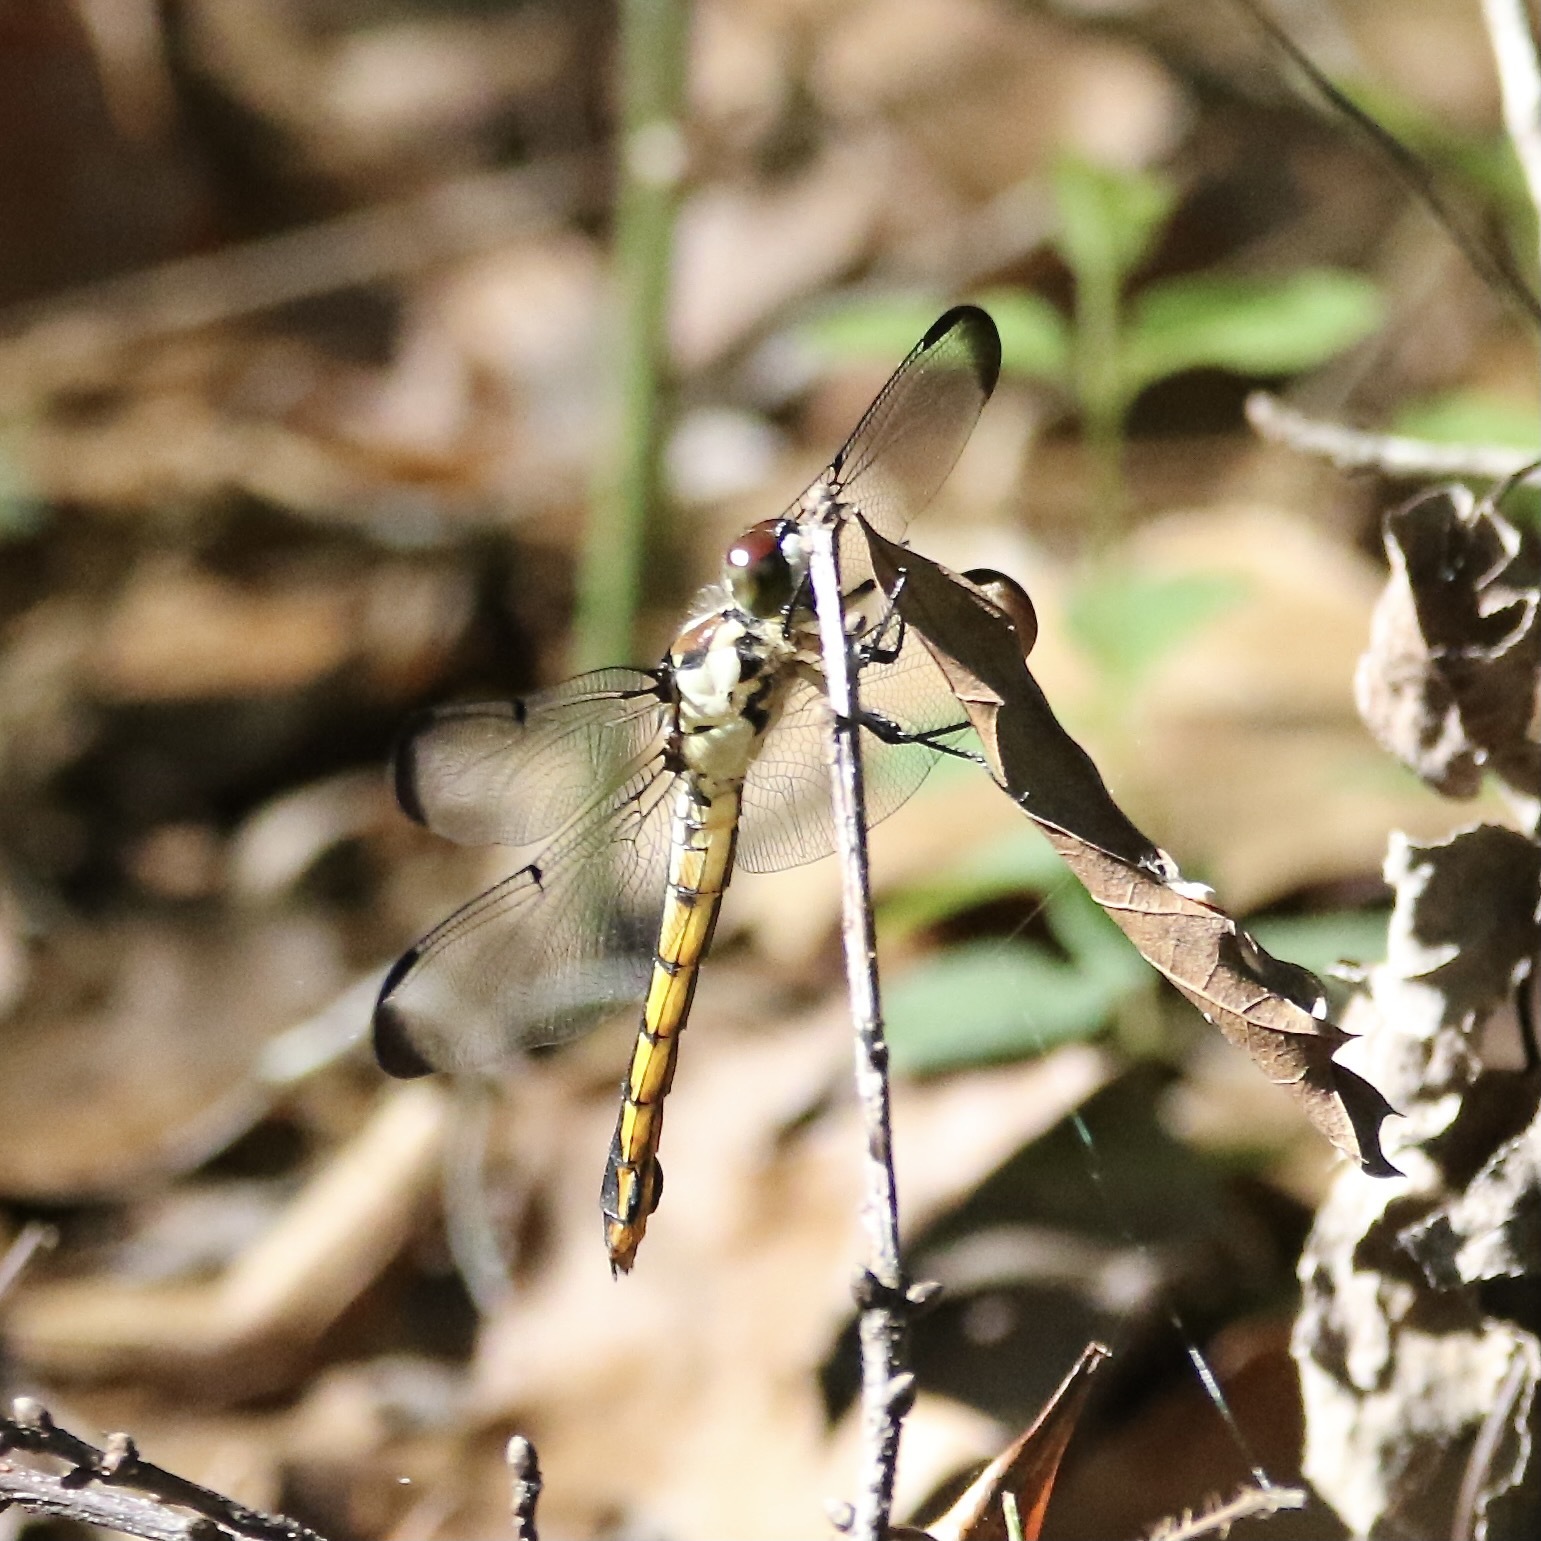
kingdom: Animalia
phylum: Arthropoda
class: Insecta
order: Odonata
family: Libellulidae
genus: Libellula
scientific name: Libellula vibrans
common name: Great blue skimmer
